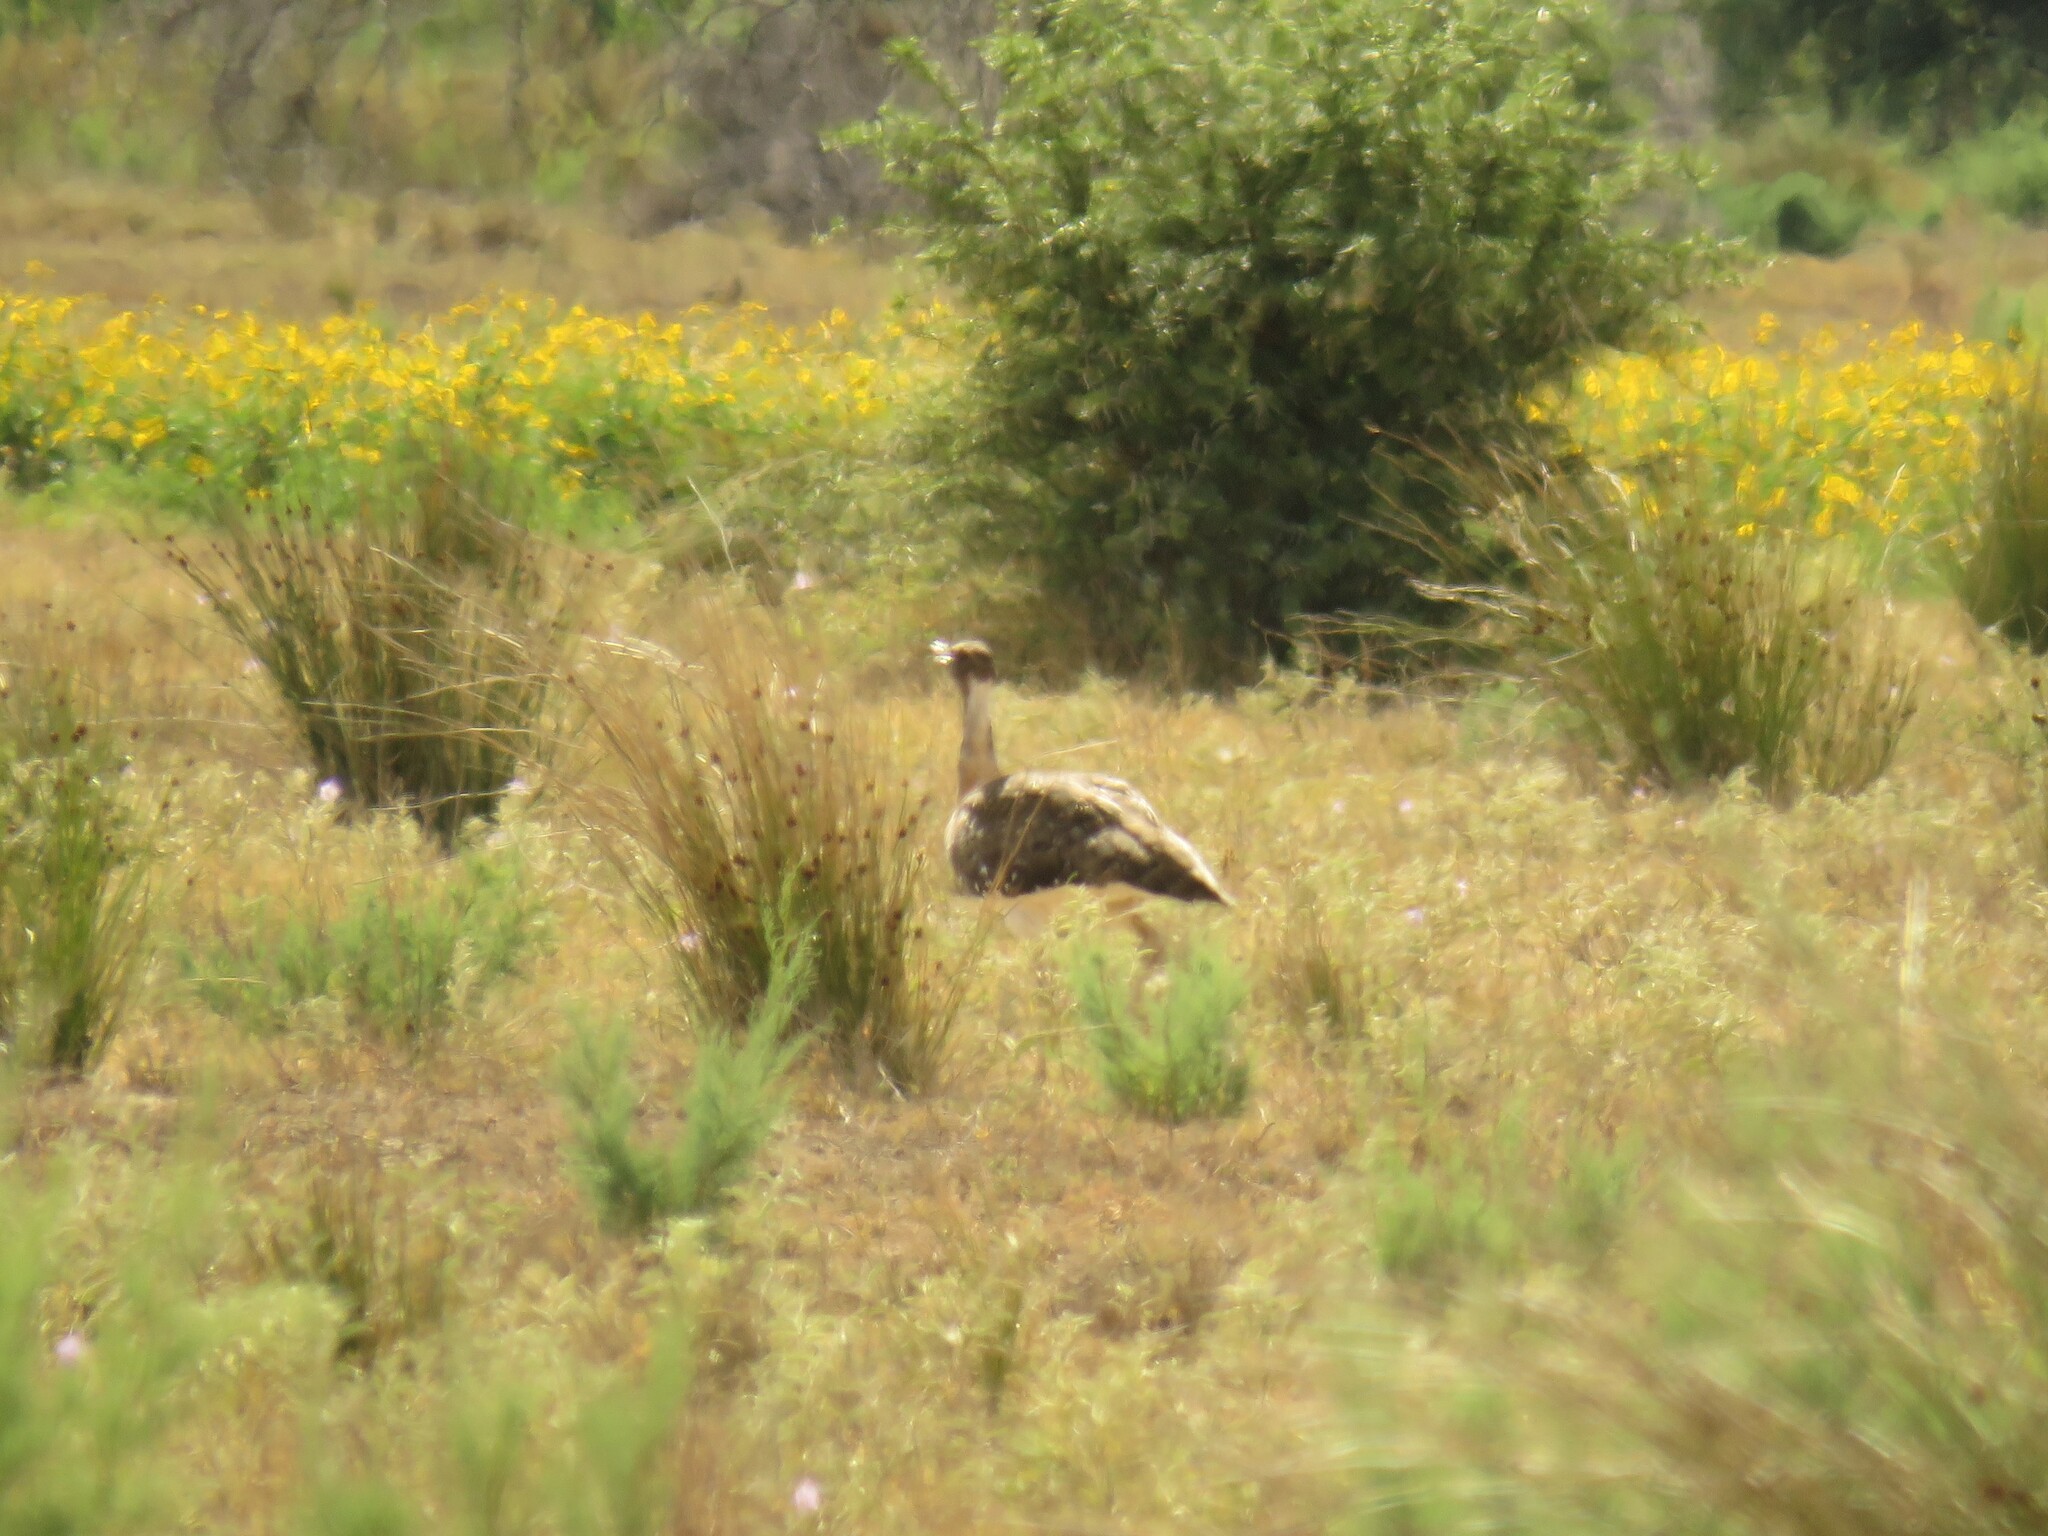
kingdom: Animalia
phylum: Chordata
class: Aves
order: Otidiformes
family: Otididae
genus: Neotis
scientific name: Neotis ludwigii
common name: Ludwig's bustard
